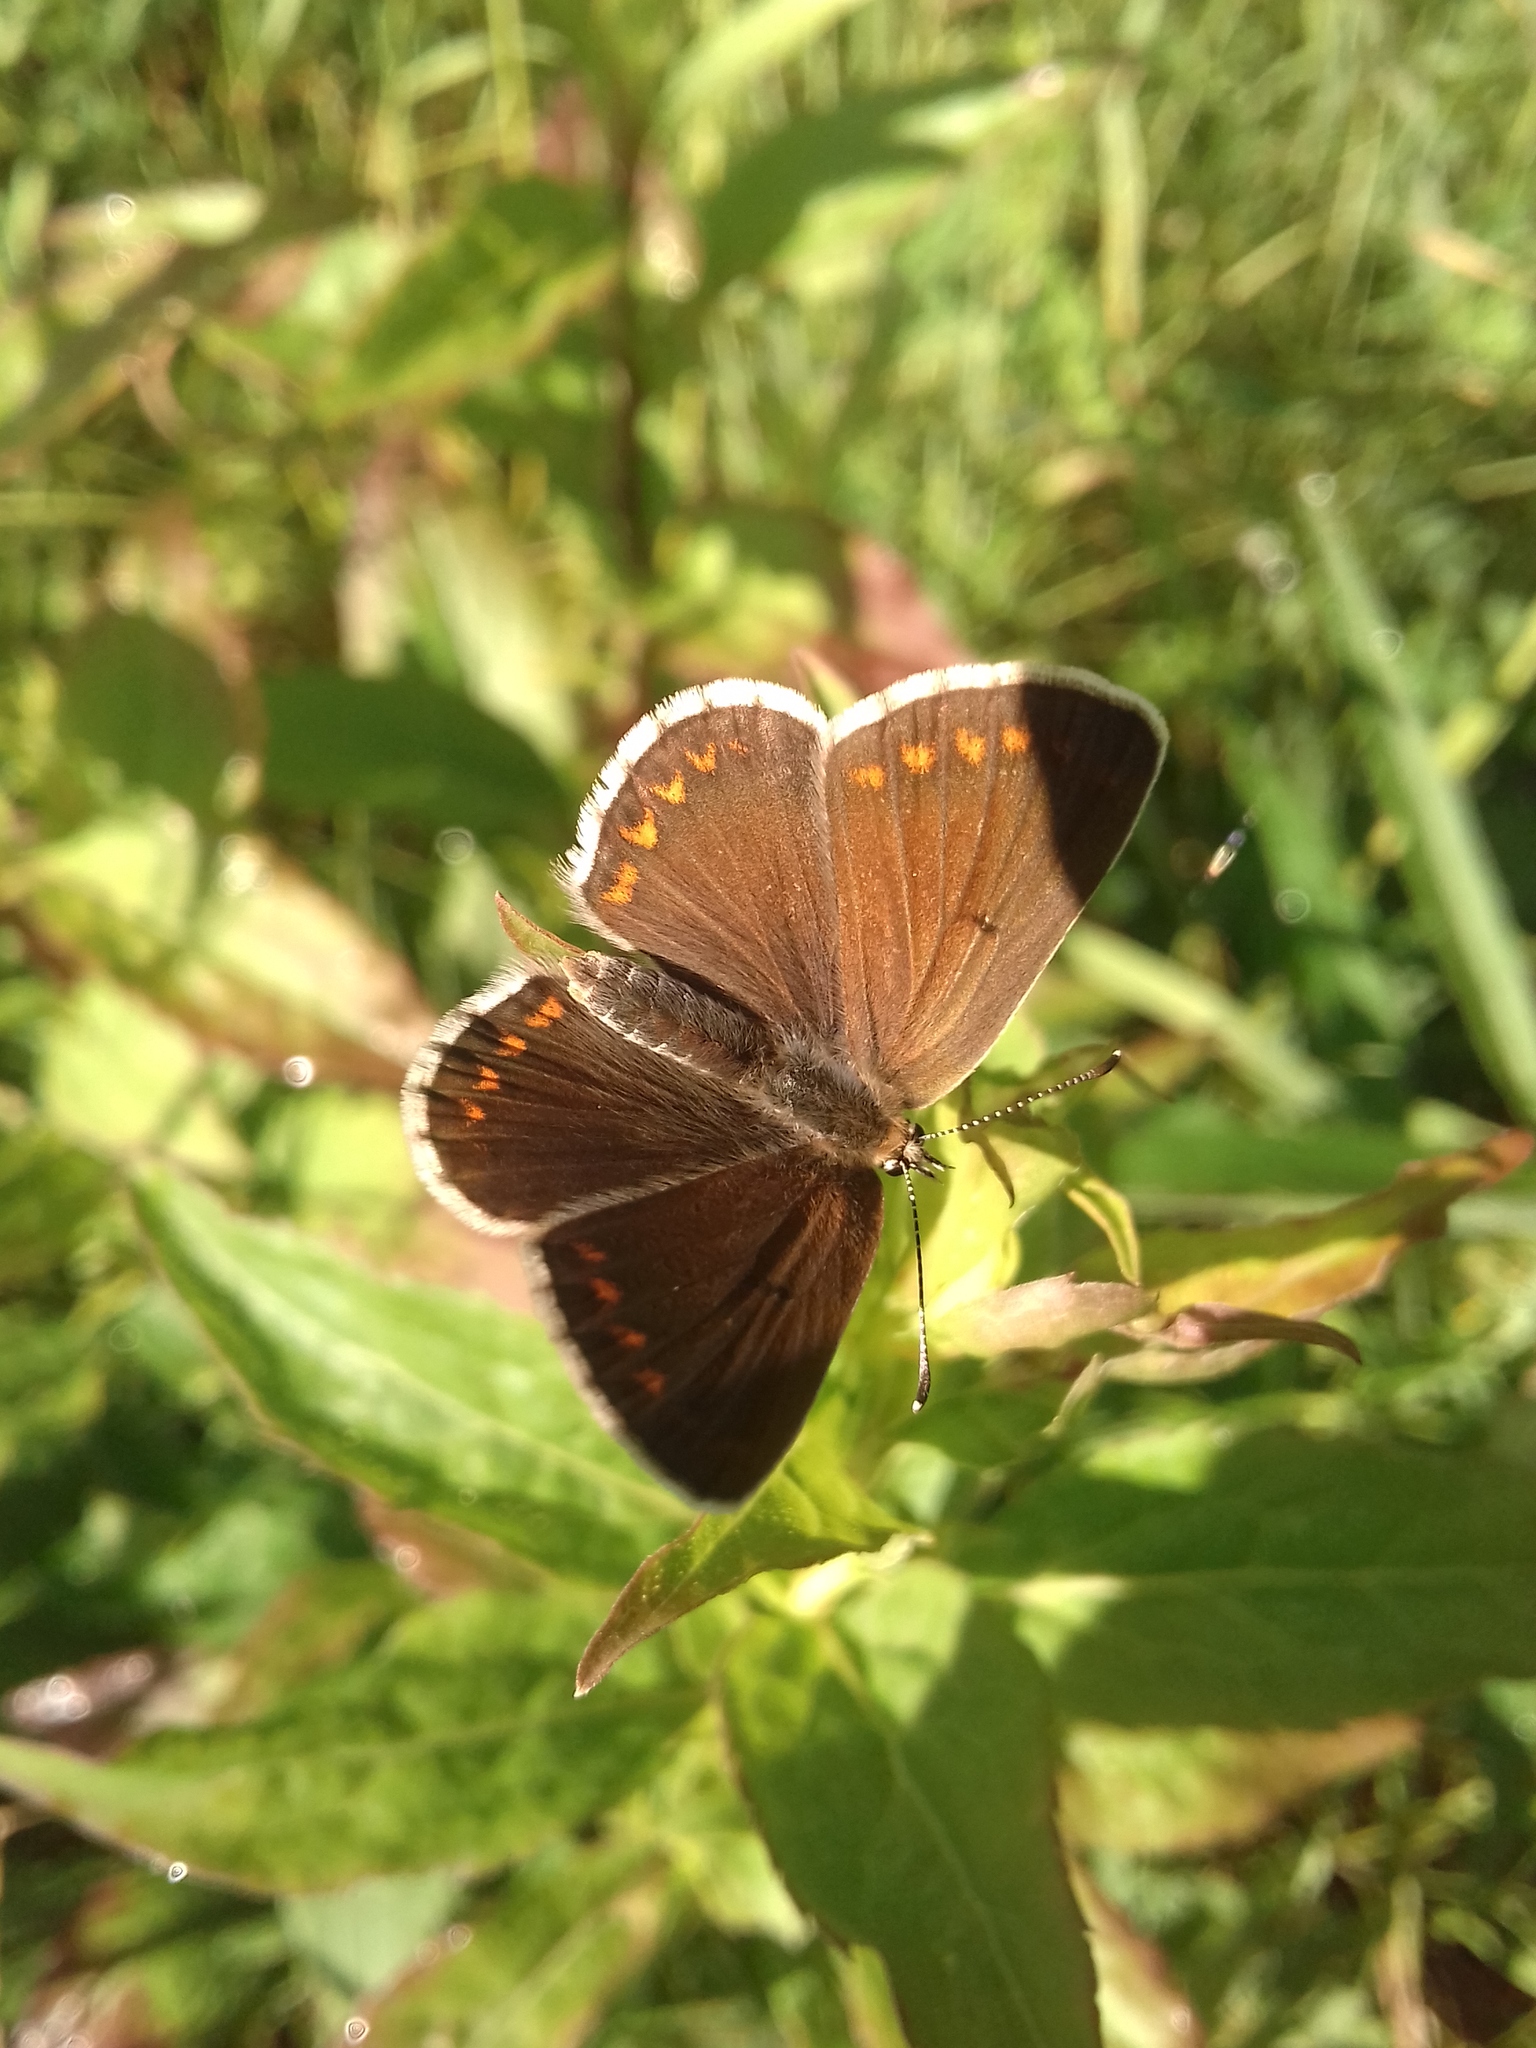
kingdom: Animalia
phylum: Arthropoda
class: Insecta
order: Lepidoptera
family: Lycaenidae
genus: Polyommatus
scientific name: Polyommatus icarus
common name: Common blue
